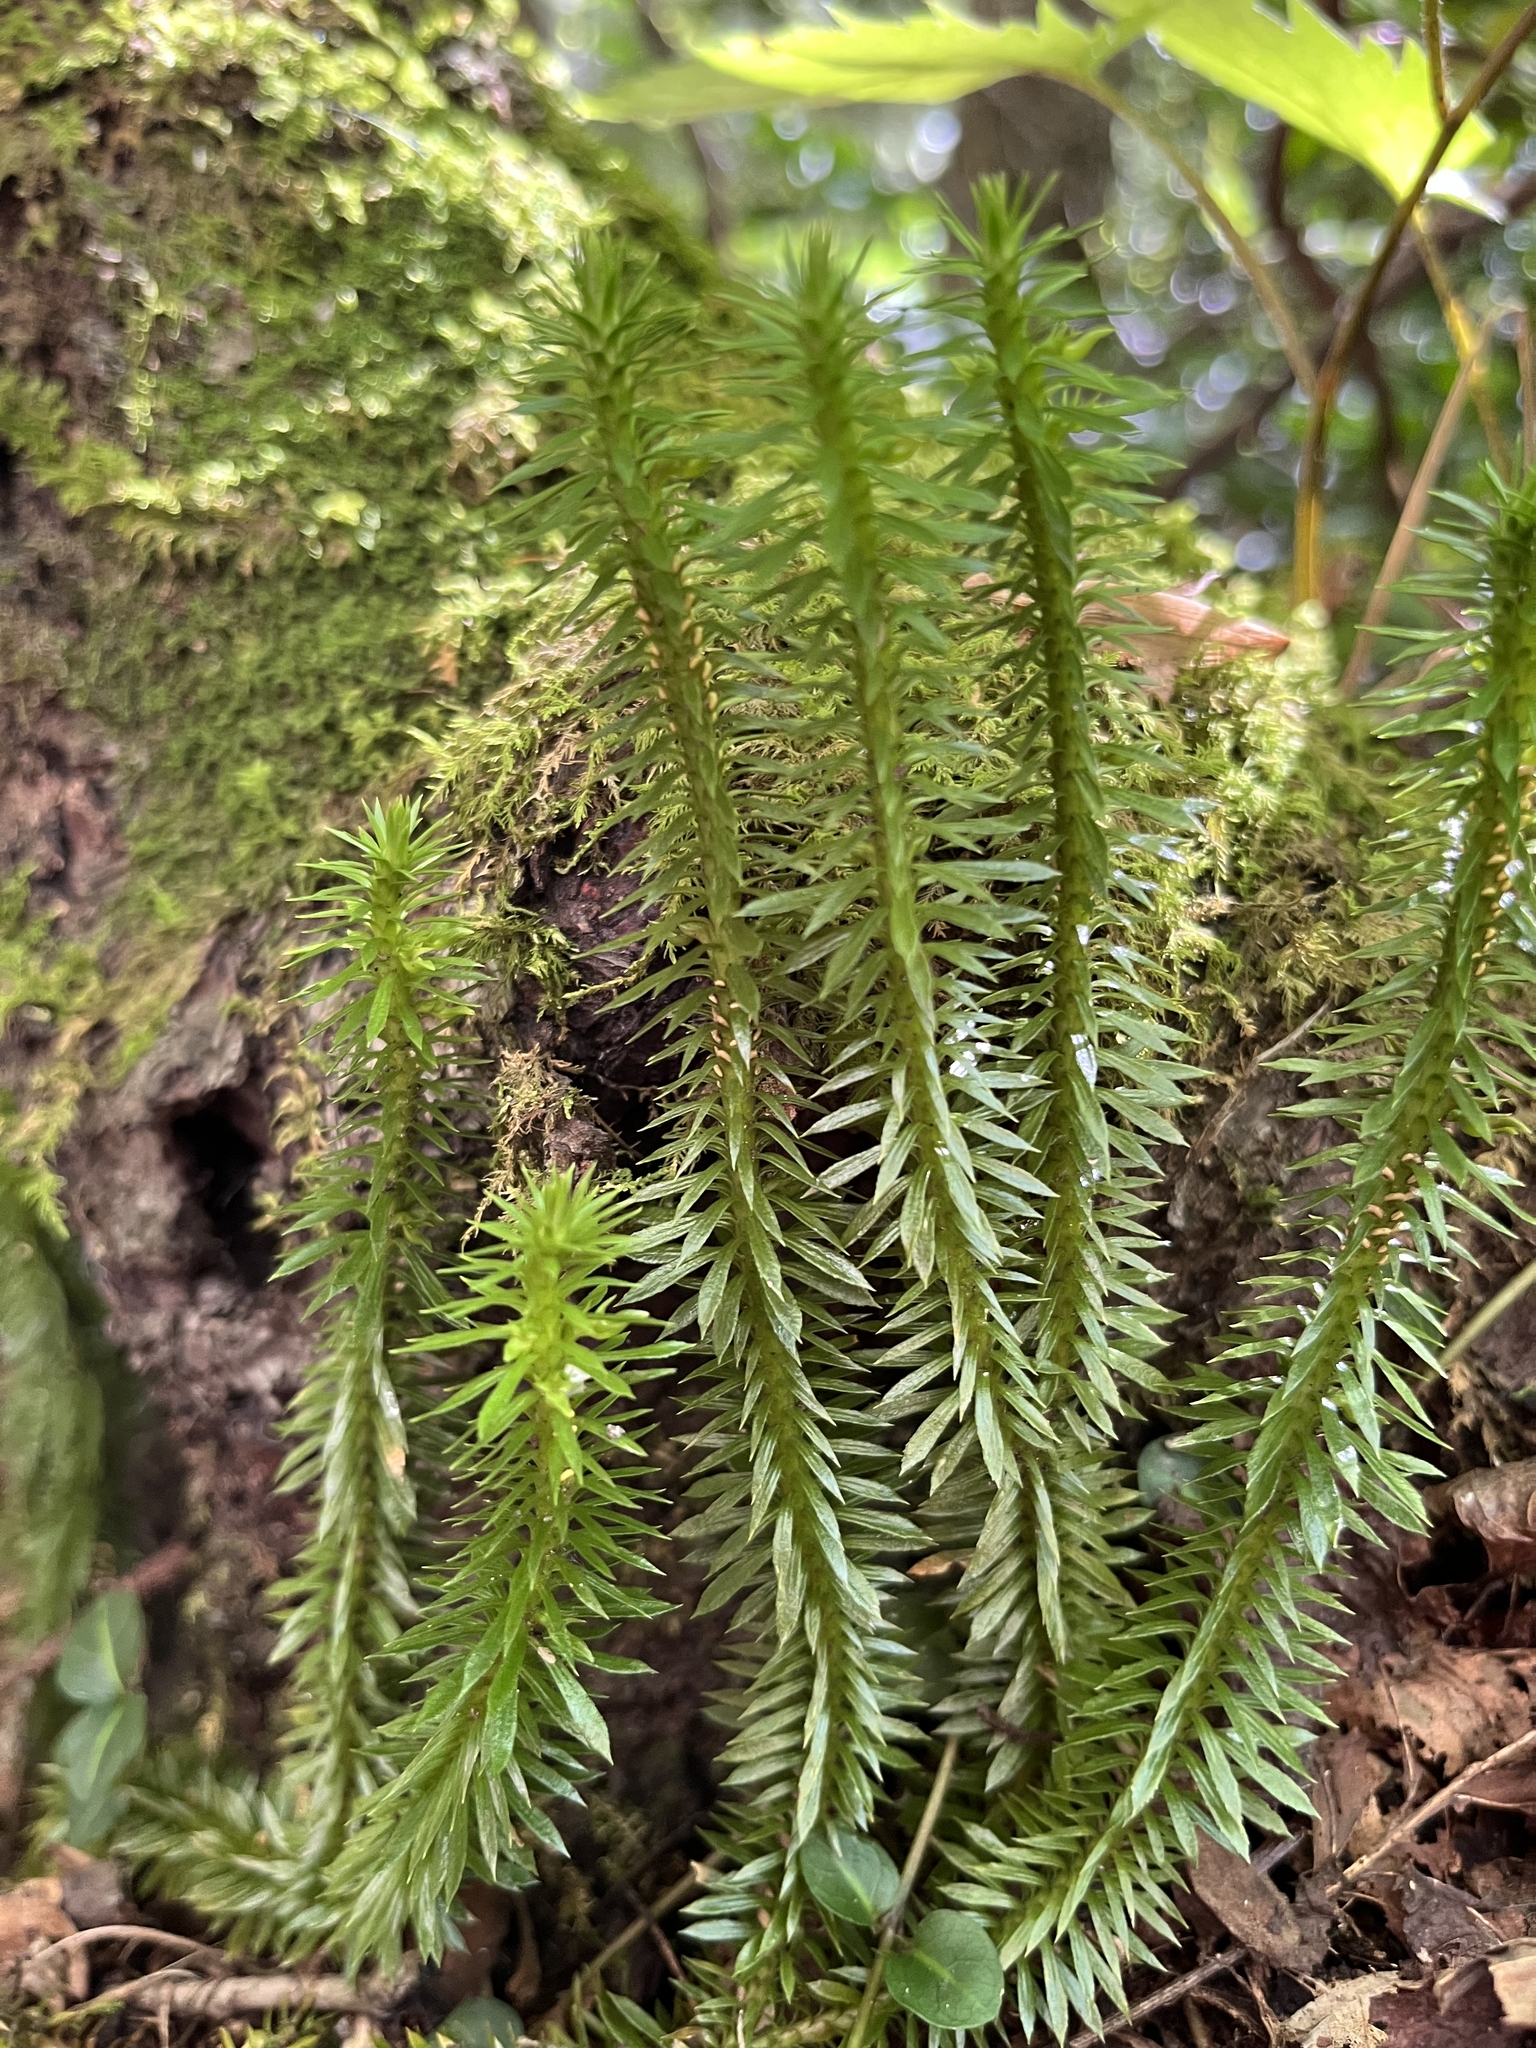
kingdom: Plantae
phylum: Tracheophyta
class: Lycopodiopsida
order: Lycopodiales
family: Lycopodiaceae
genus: Huperzia
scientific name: Huperzia lucidula
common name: Shining clubmoss
